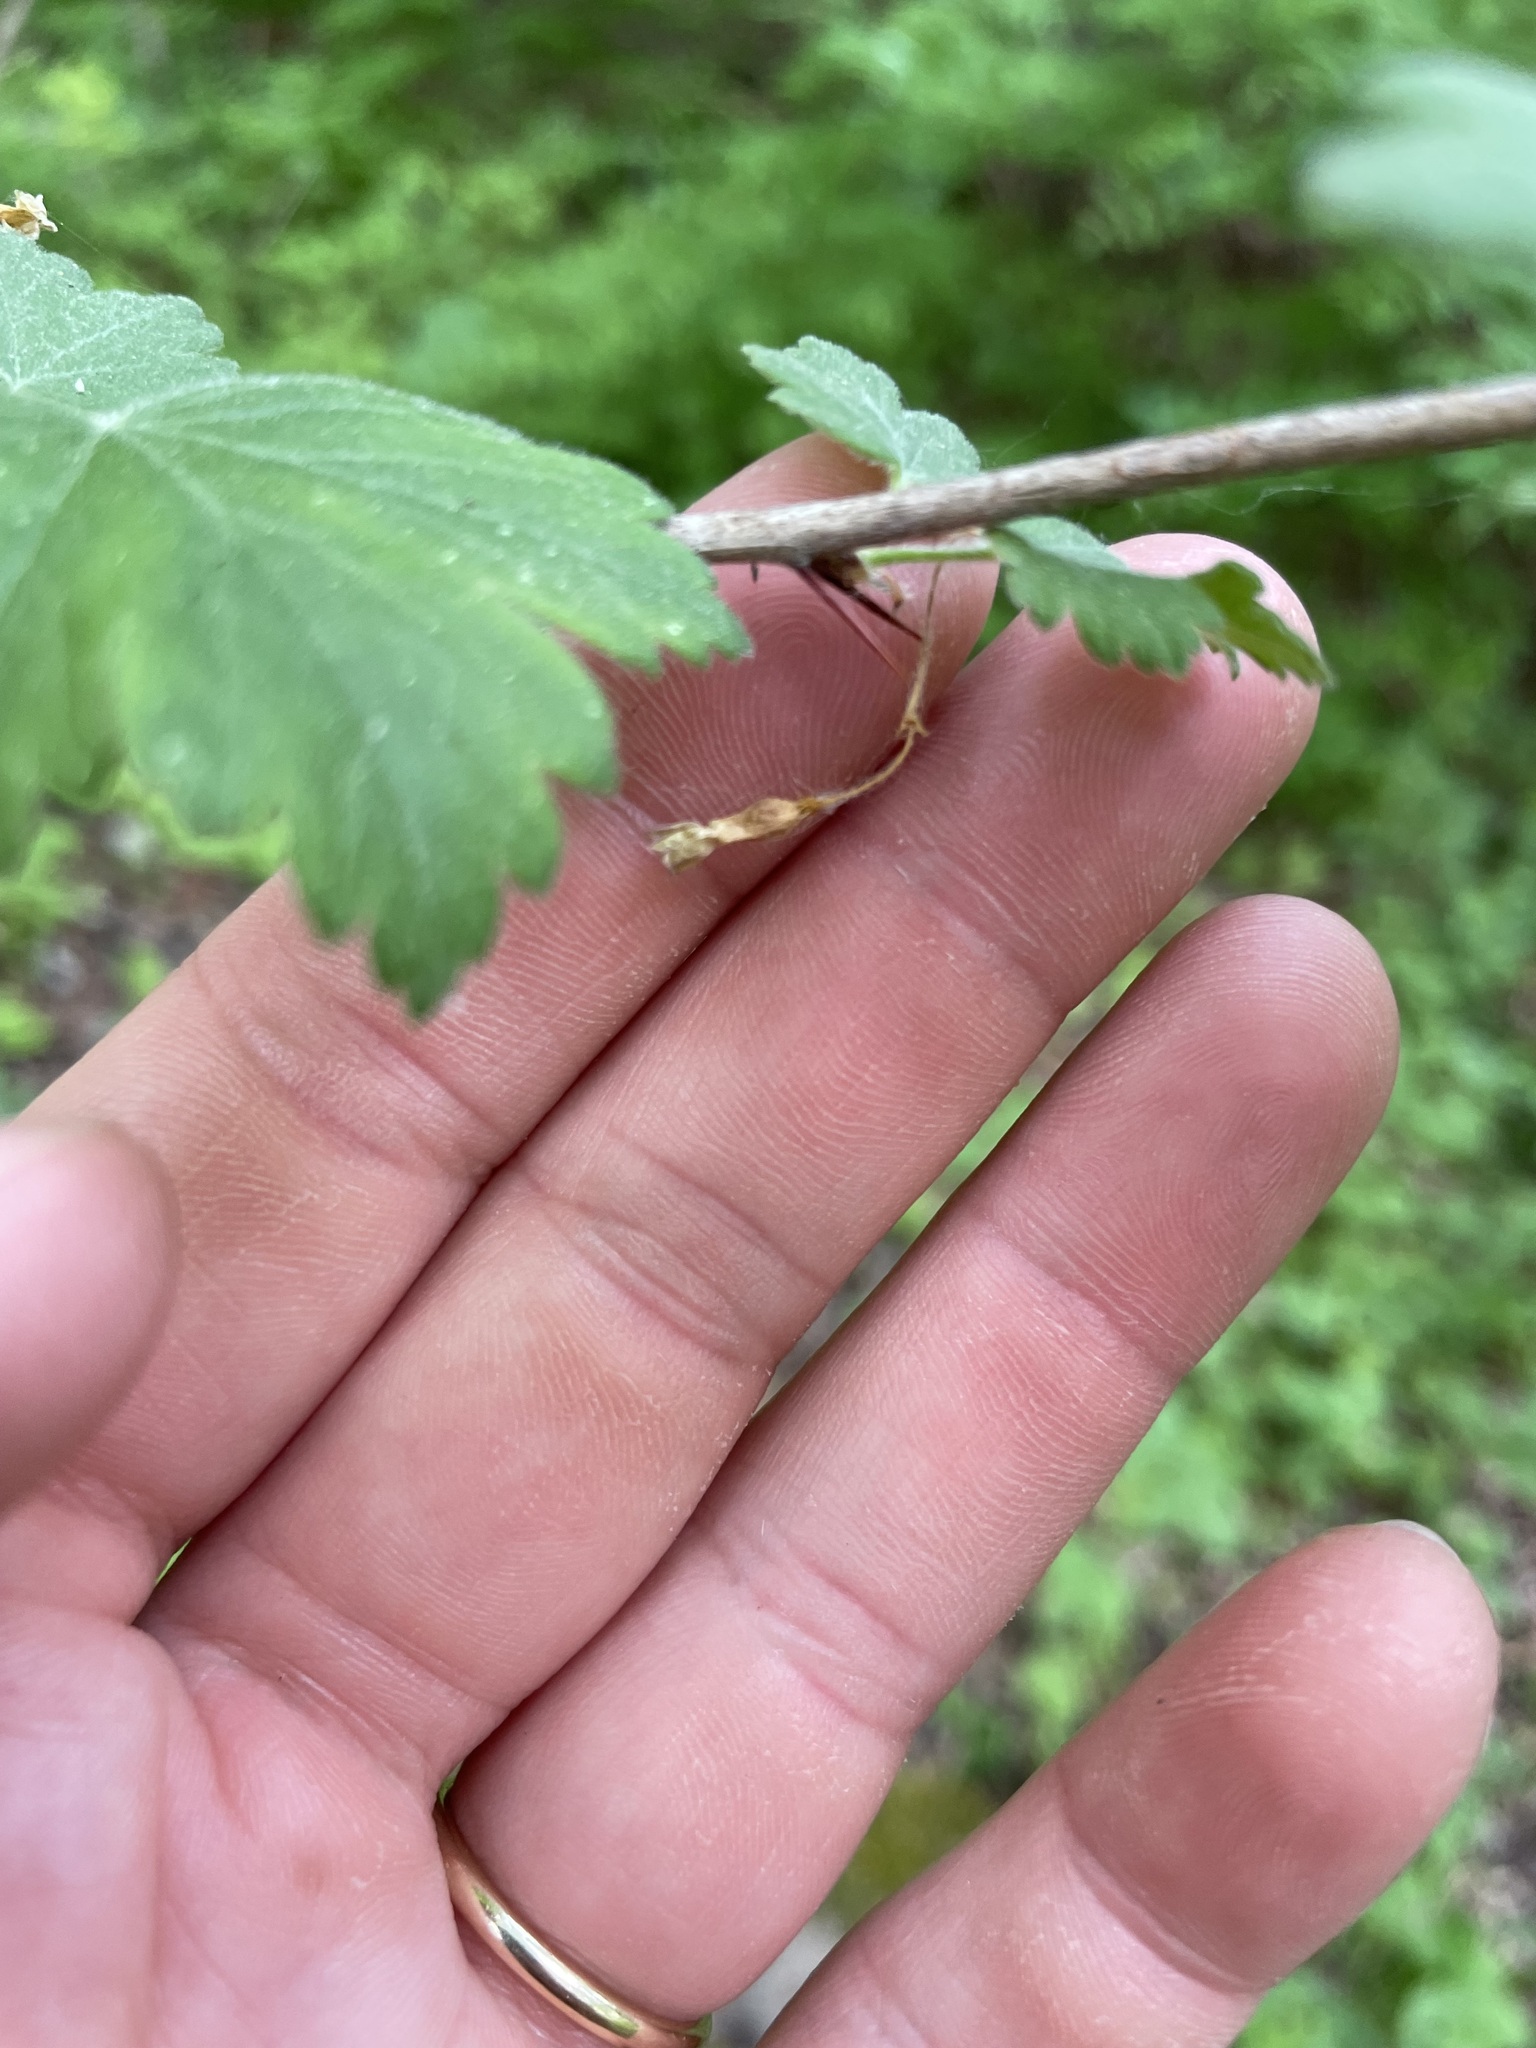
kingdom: Plantae
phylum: Tracheophyta
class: Magnoliopsida
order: Saxifragales
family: Grossulariaceae
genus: Ribes
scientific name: Ribes cynosbati
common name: American gooseberry
